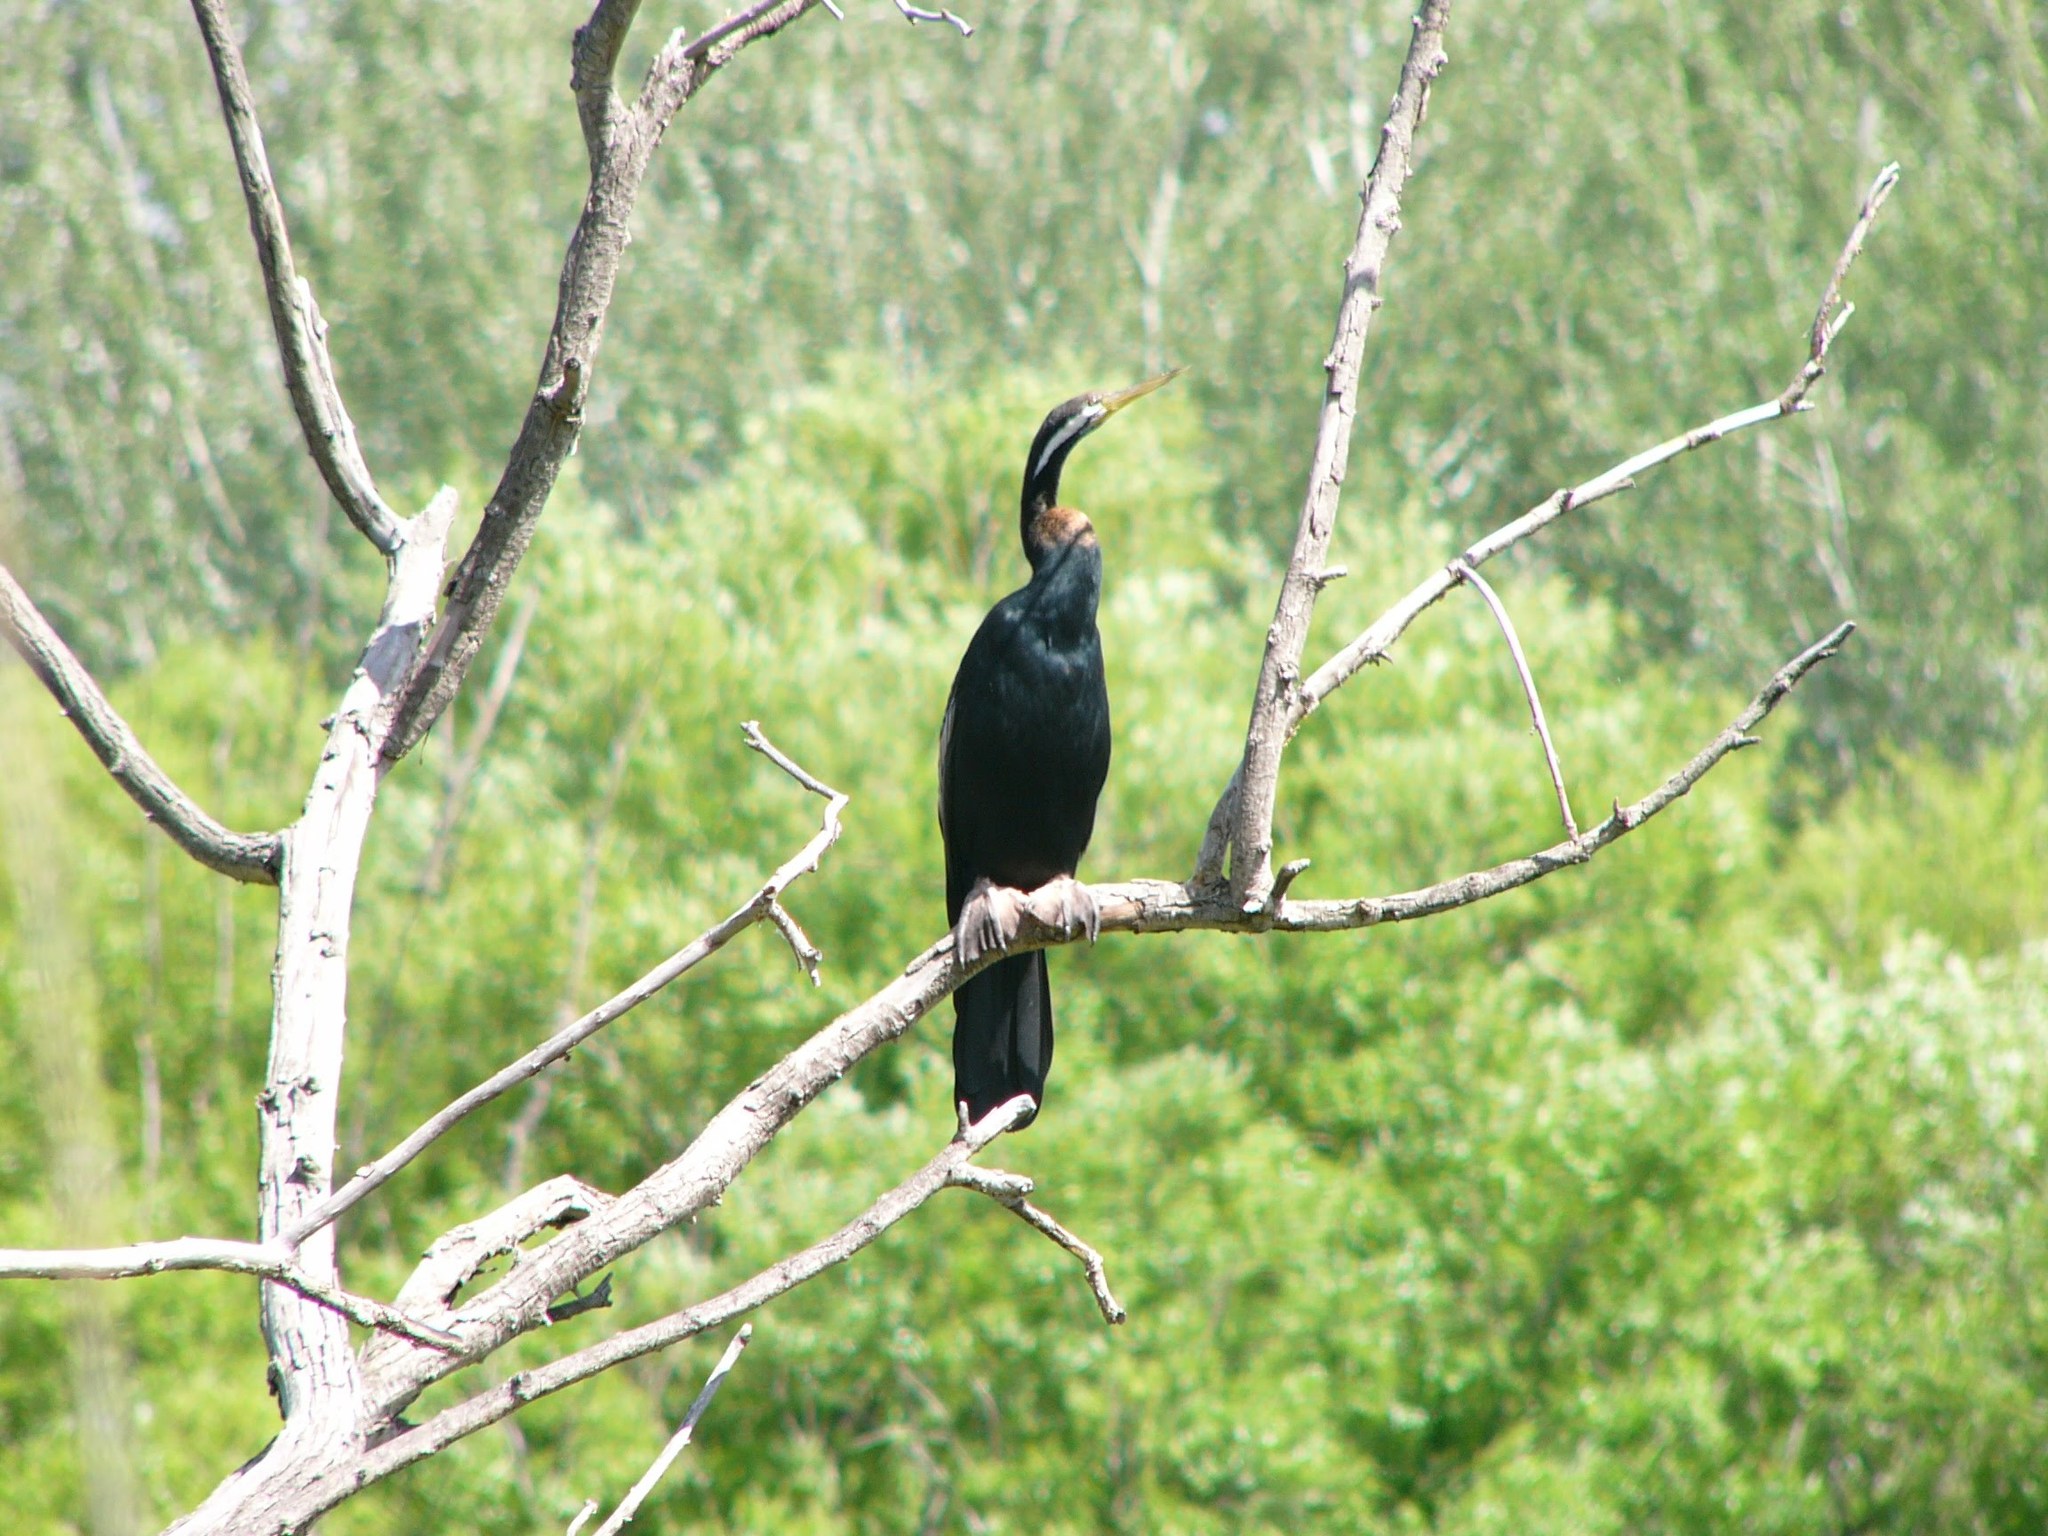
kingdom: Animalia
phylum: Chordata
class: Aves
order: Suliformes
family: Anhingidae
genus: Anhinga
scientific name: Anhinga novaehollandiae
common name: Australasian darter
